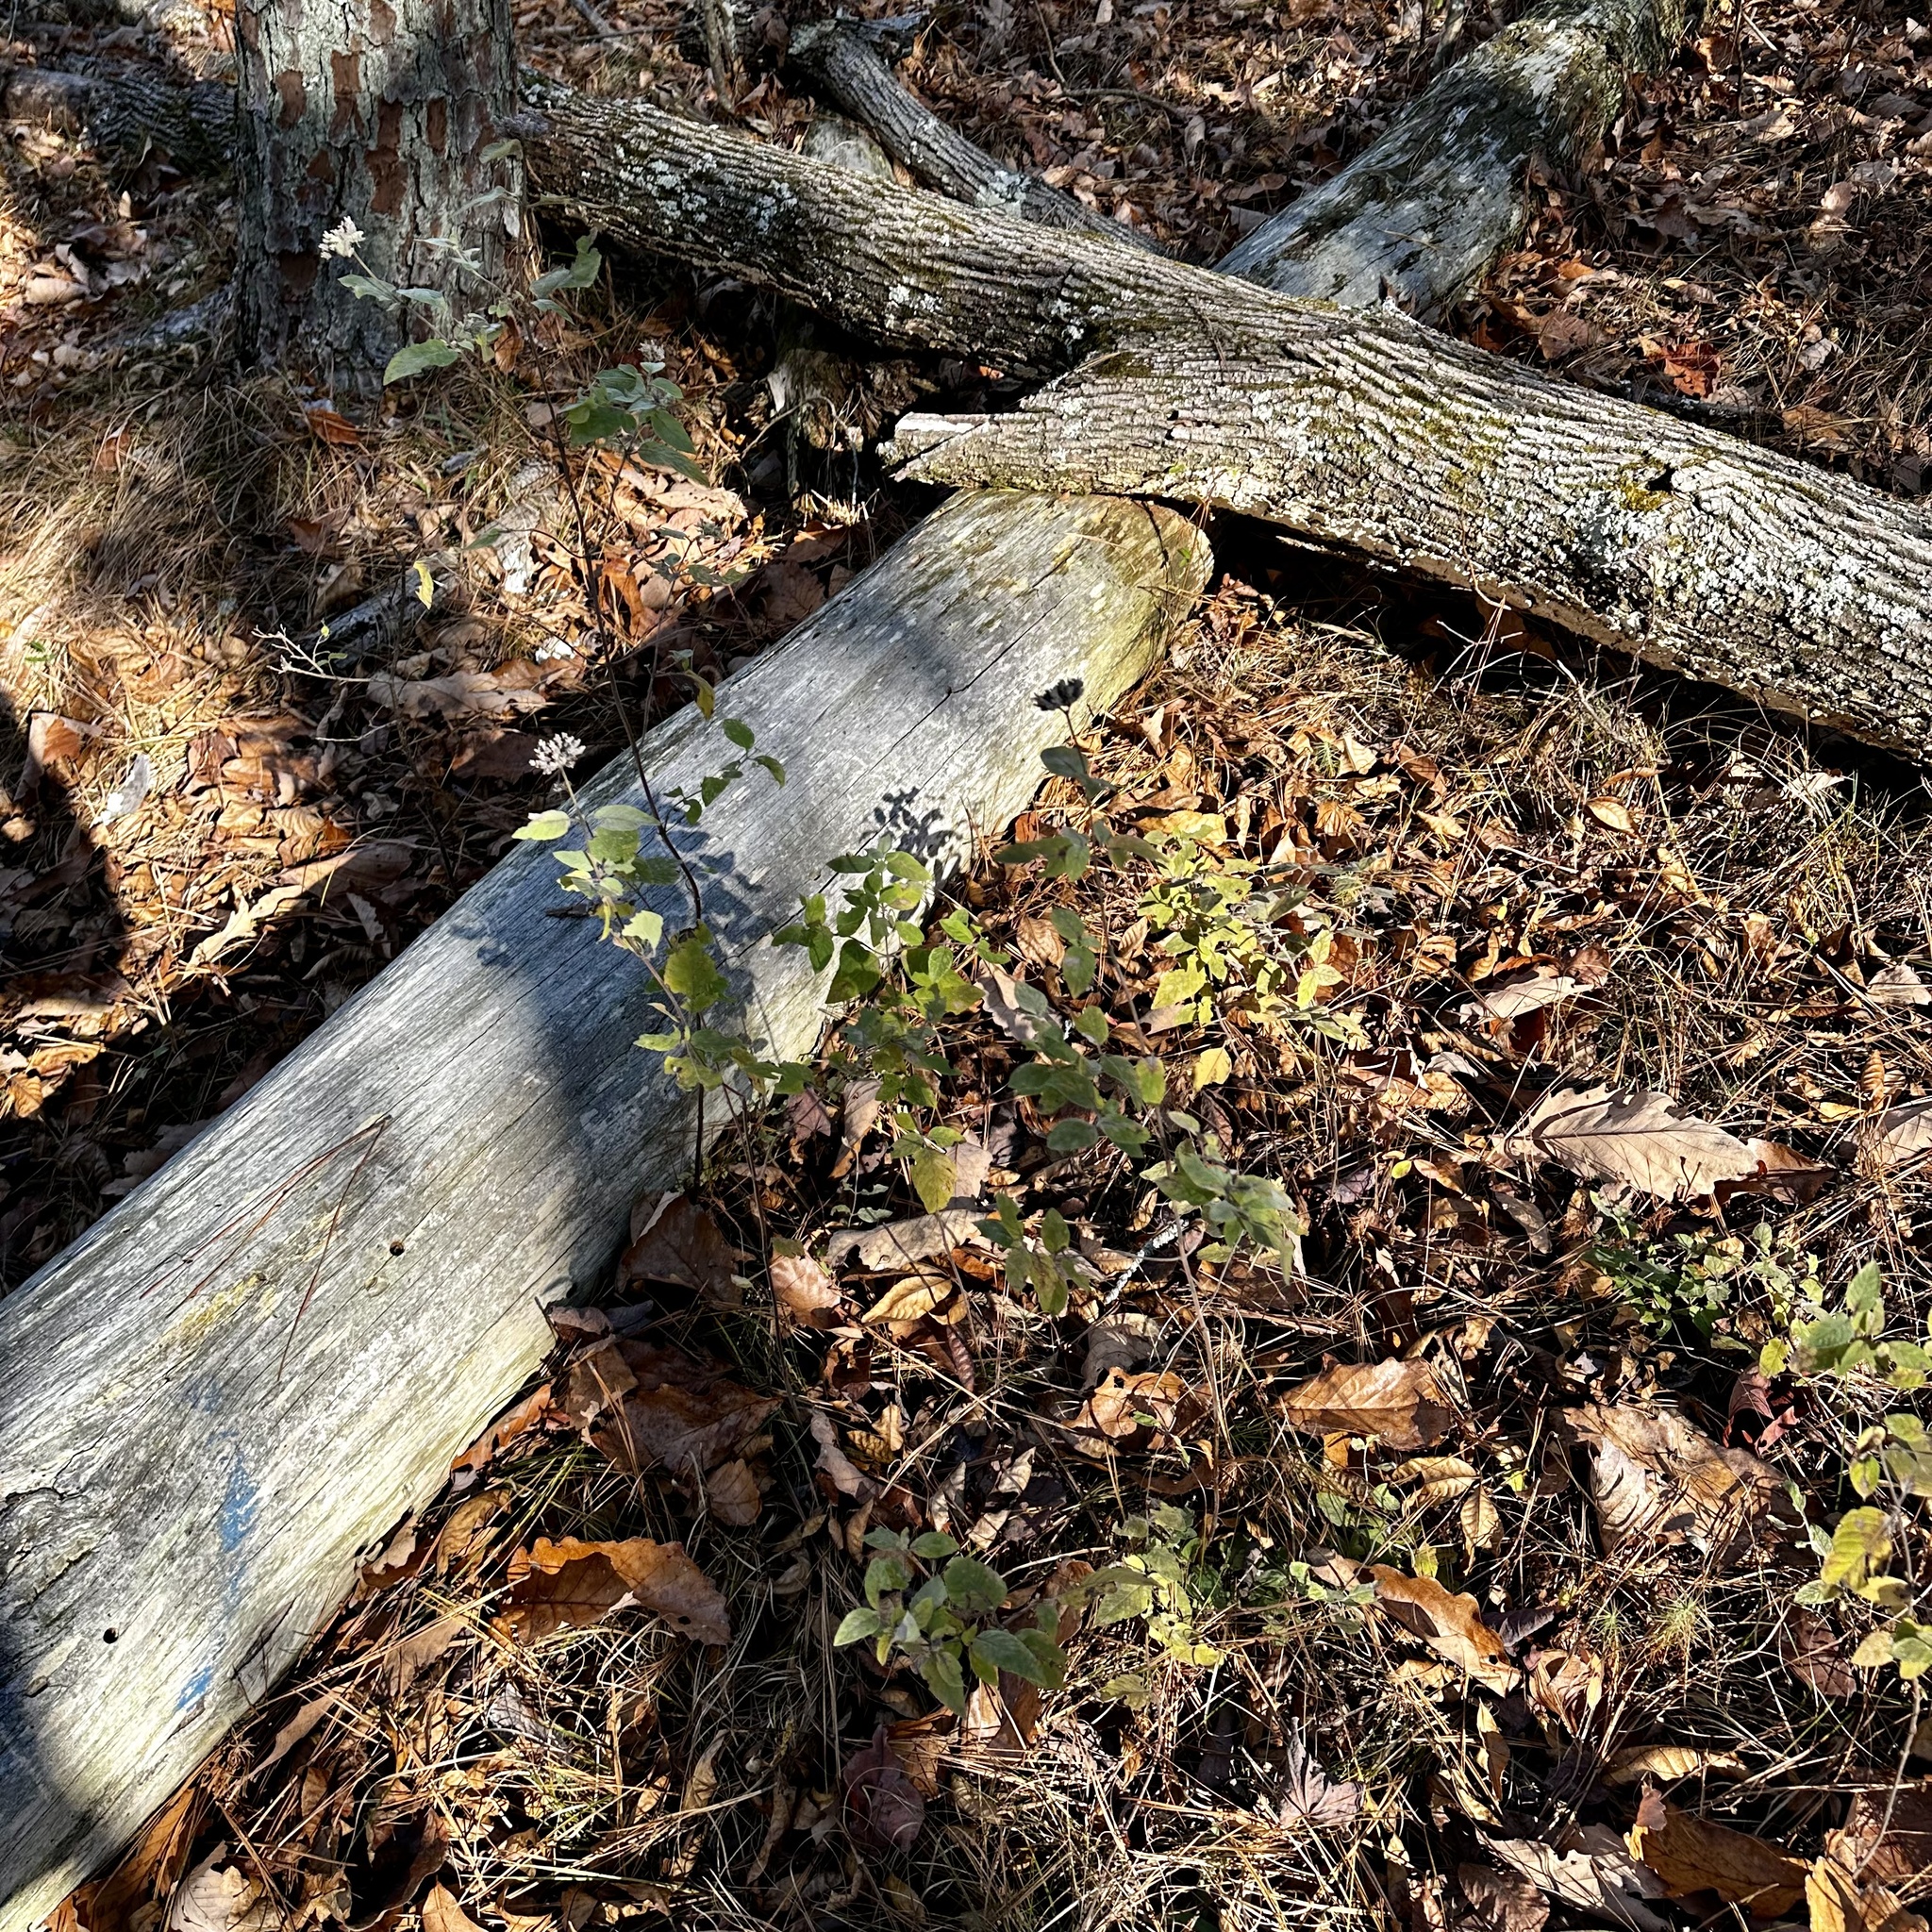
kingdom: Plantae
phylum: Tracheophyta
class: Magnoliopsida
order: Lamiales
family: Lamiaceae
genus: Pycnanthemum
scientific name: Pycnanthemum curvipes
